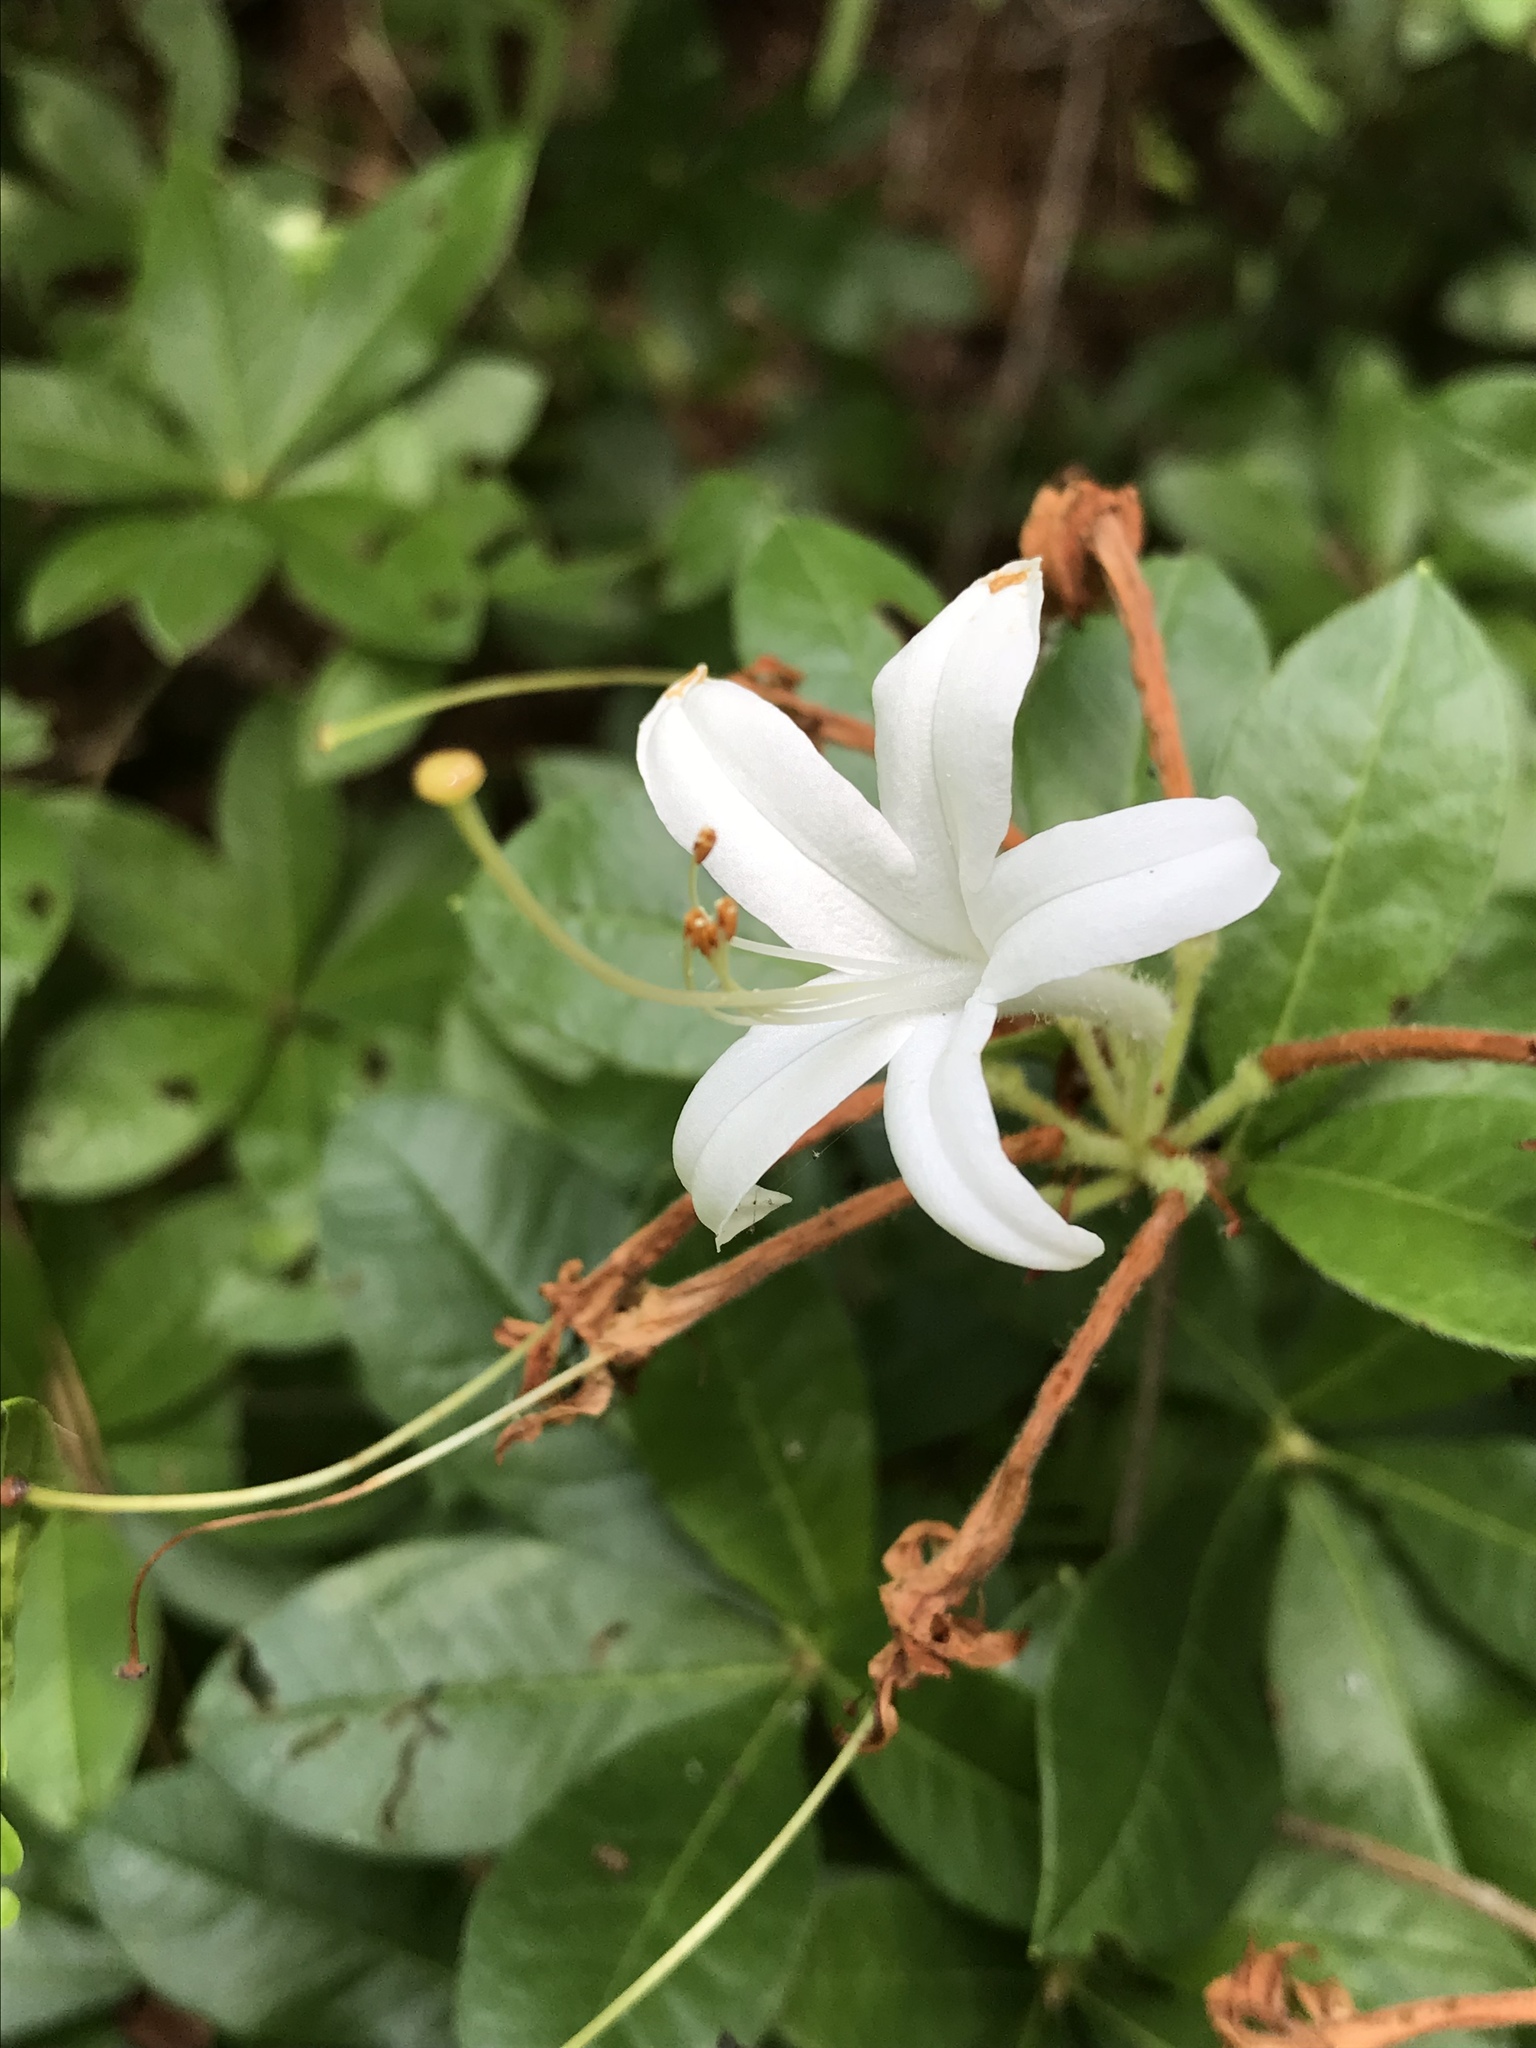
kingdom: Plantae
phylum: Tracheophyta
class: Magnoliopsida
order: Ericales
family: Ericaceae
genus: Rhododendron
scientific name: Rhododendron viscosum
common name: Clammy azalea
